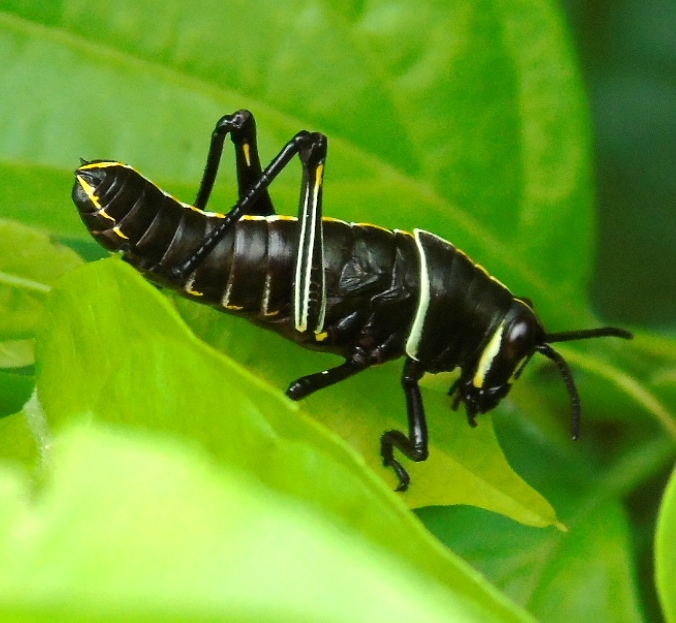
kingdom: Animalia
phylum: Arthropoda
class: Insecta
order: Orthoptera
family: Romaleidae
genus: Romalea
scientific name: Romalea
